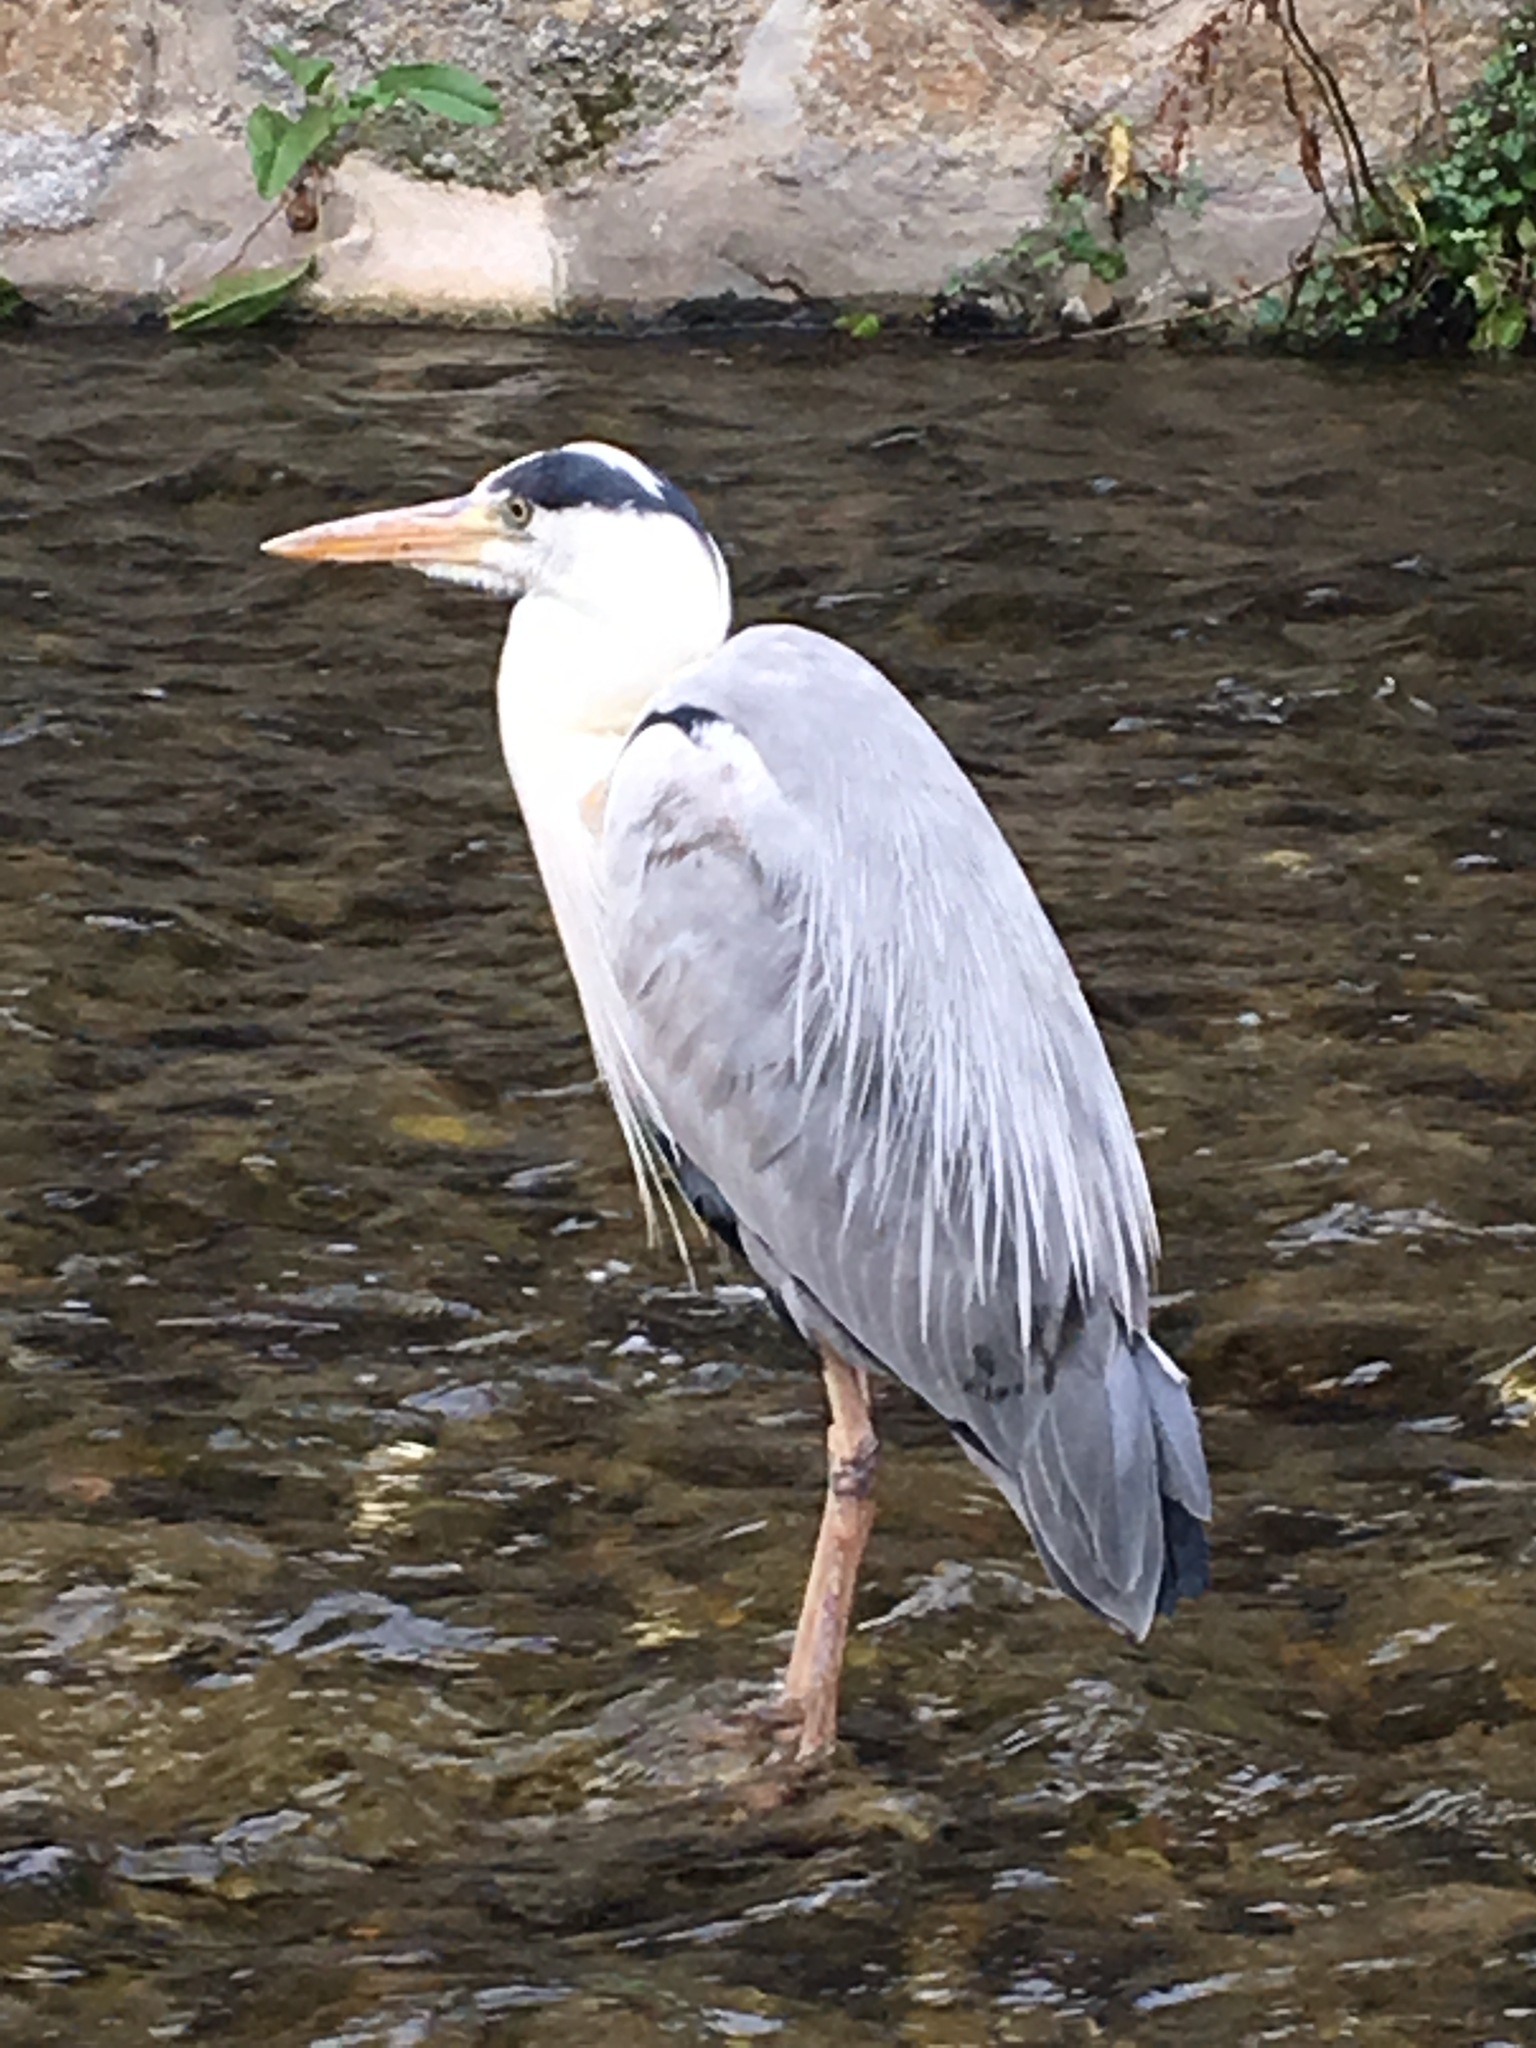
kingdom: Animalia
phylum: Chordata
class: Aves
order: Pelecaniformes
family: Ardeidae
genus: Ardea
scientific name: Ardea cinerea
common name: Grey heron
